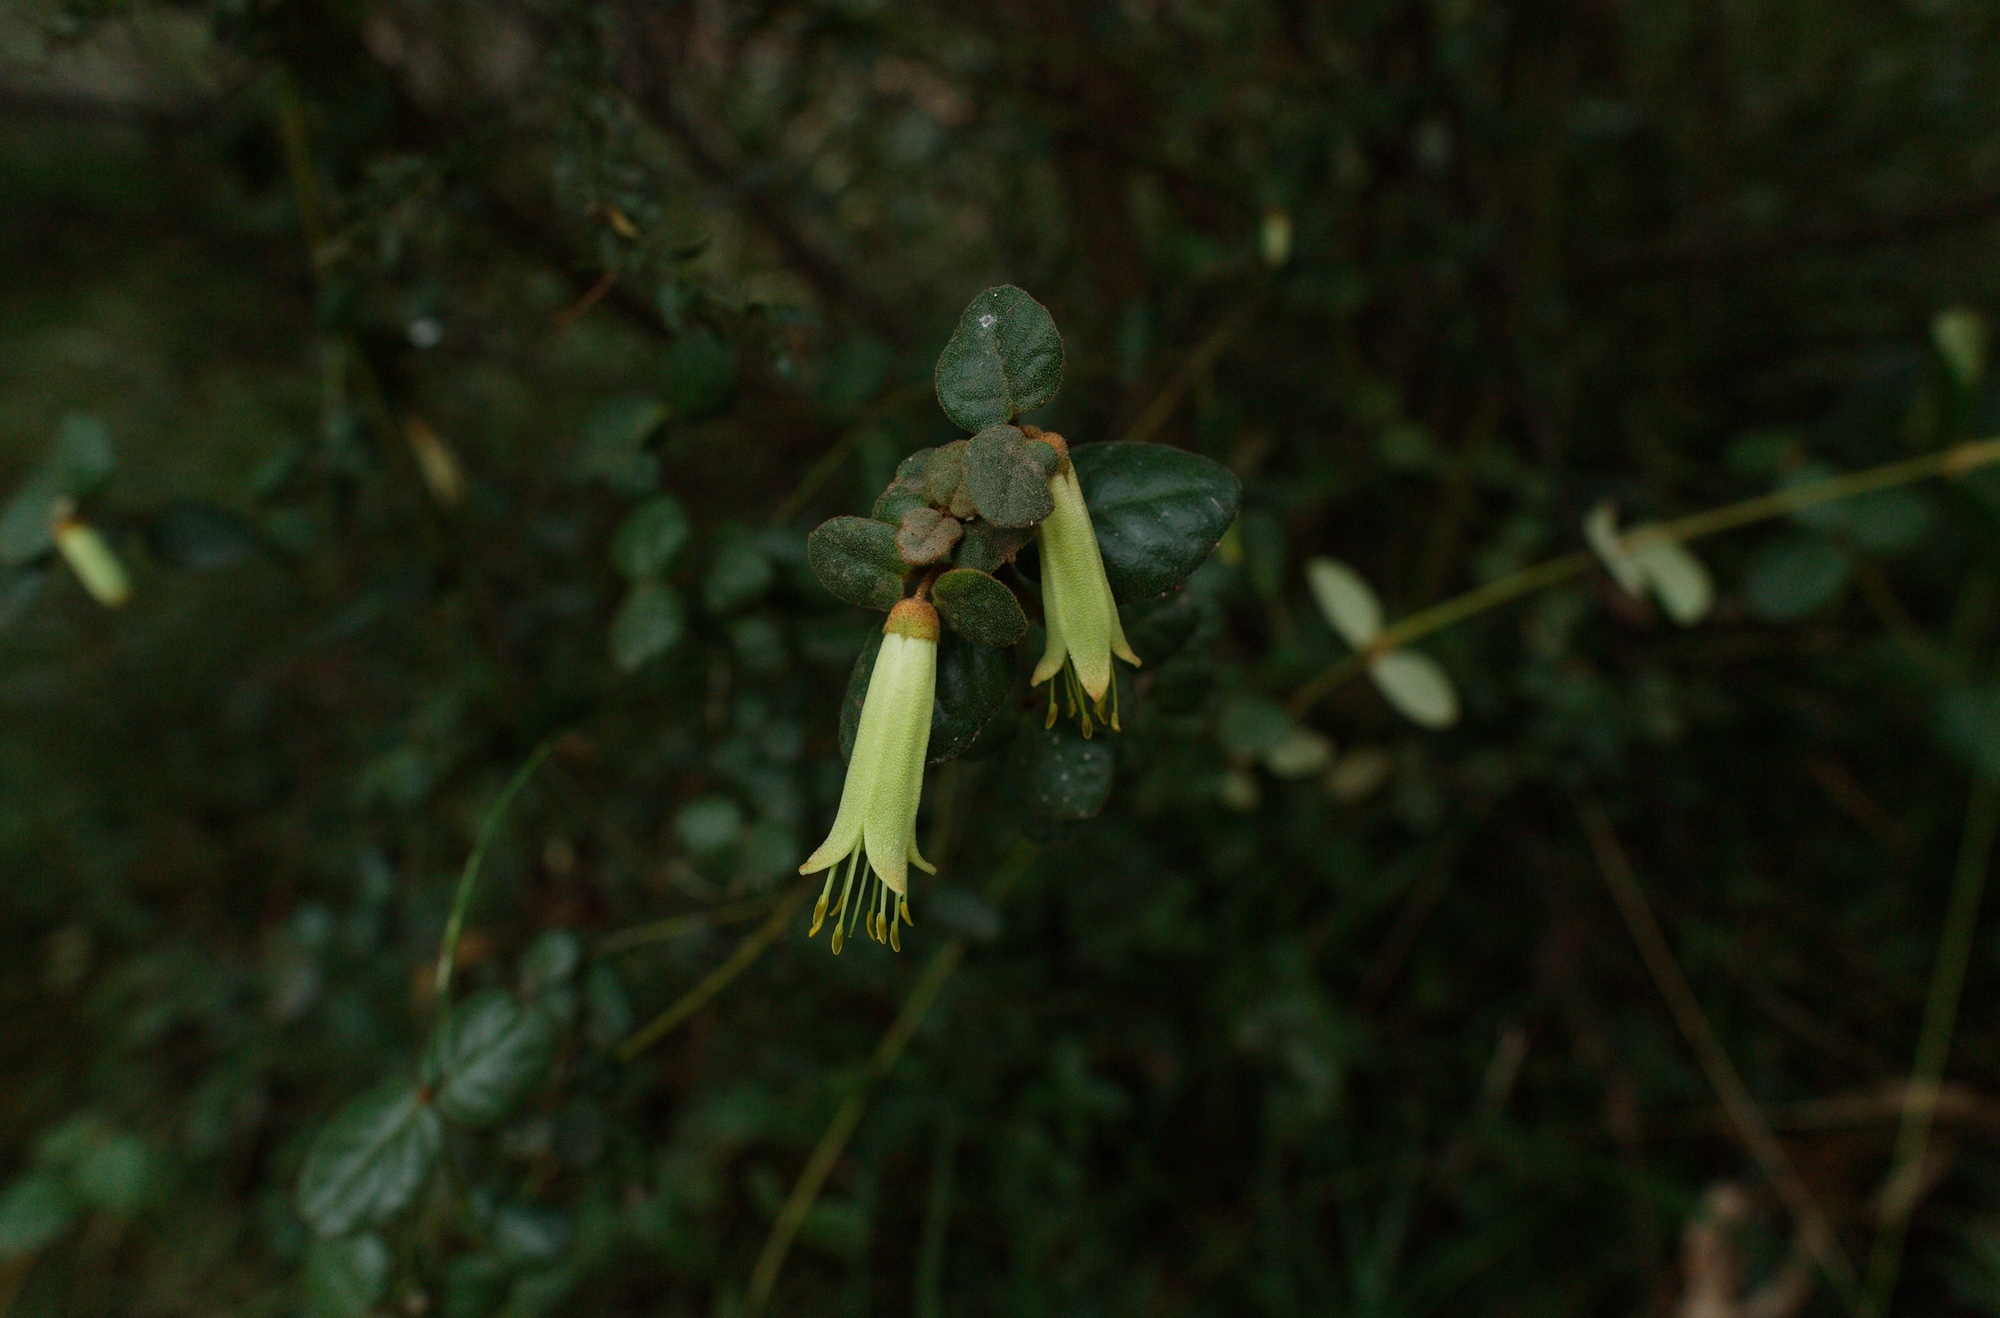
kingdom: Plantae
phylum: Tracheophyta
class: Magnoliopsida
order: Sapindales
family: Rutaceae
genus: Correa
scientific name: Correa reflexa
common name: Common correa
